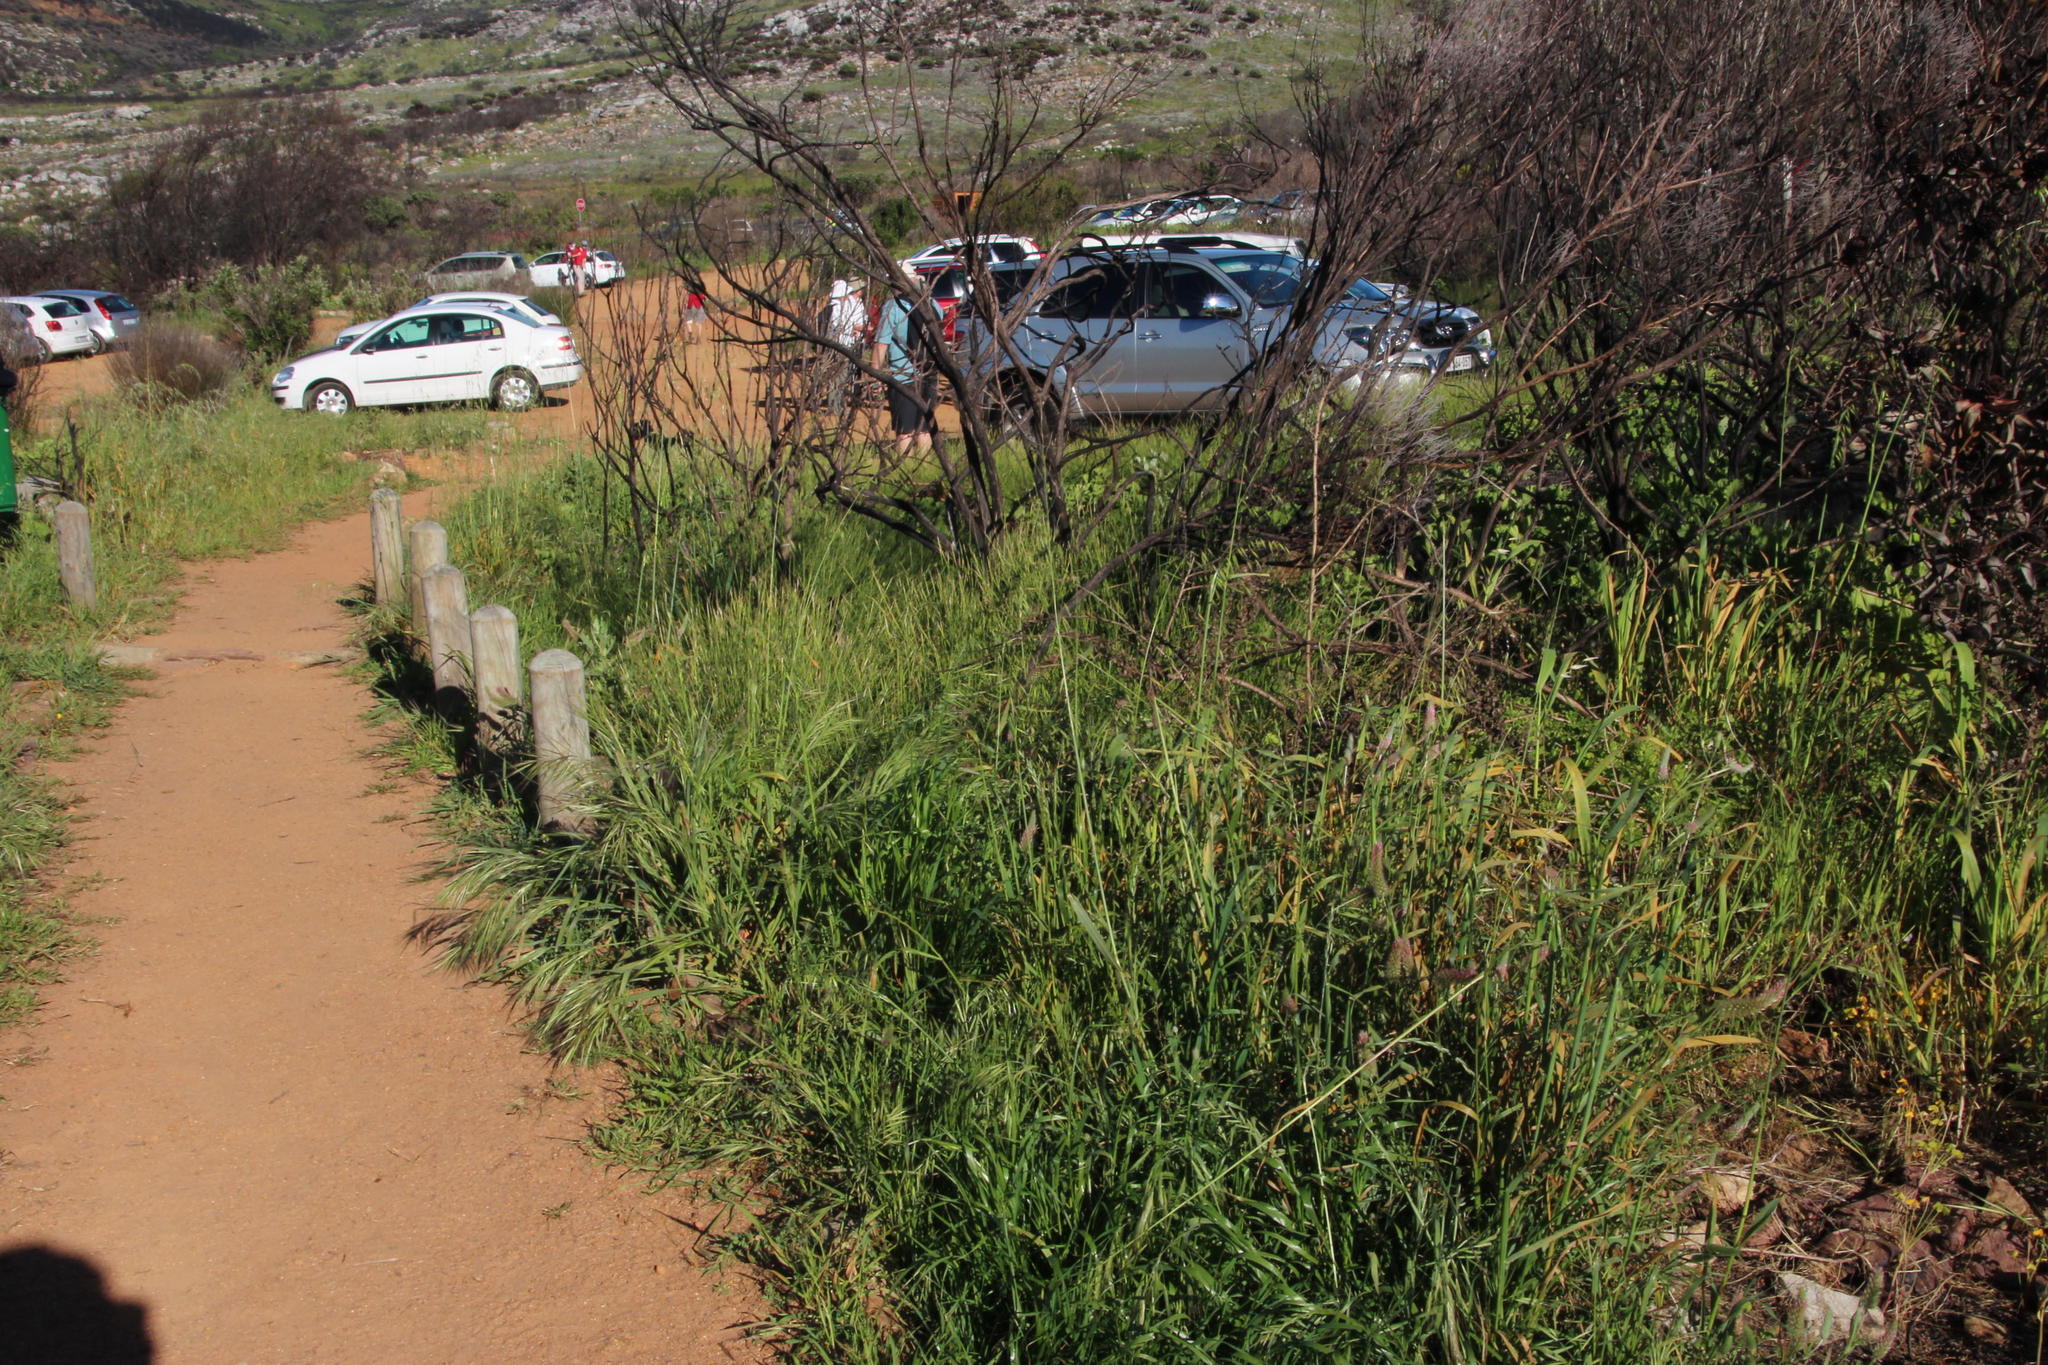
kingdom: Plantae
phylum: Tracheophyta
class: Liliopsida
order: Poales
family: Poaceae
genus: Avena
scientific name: Avena fatua
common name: Wild oat
